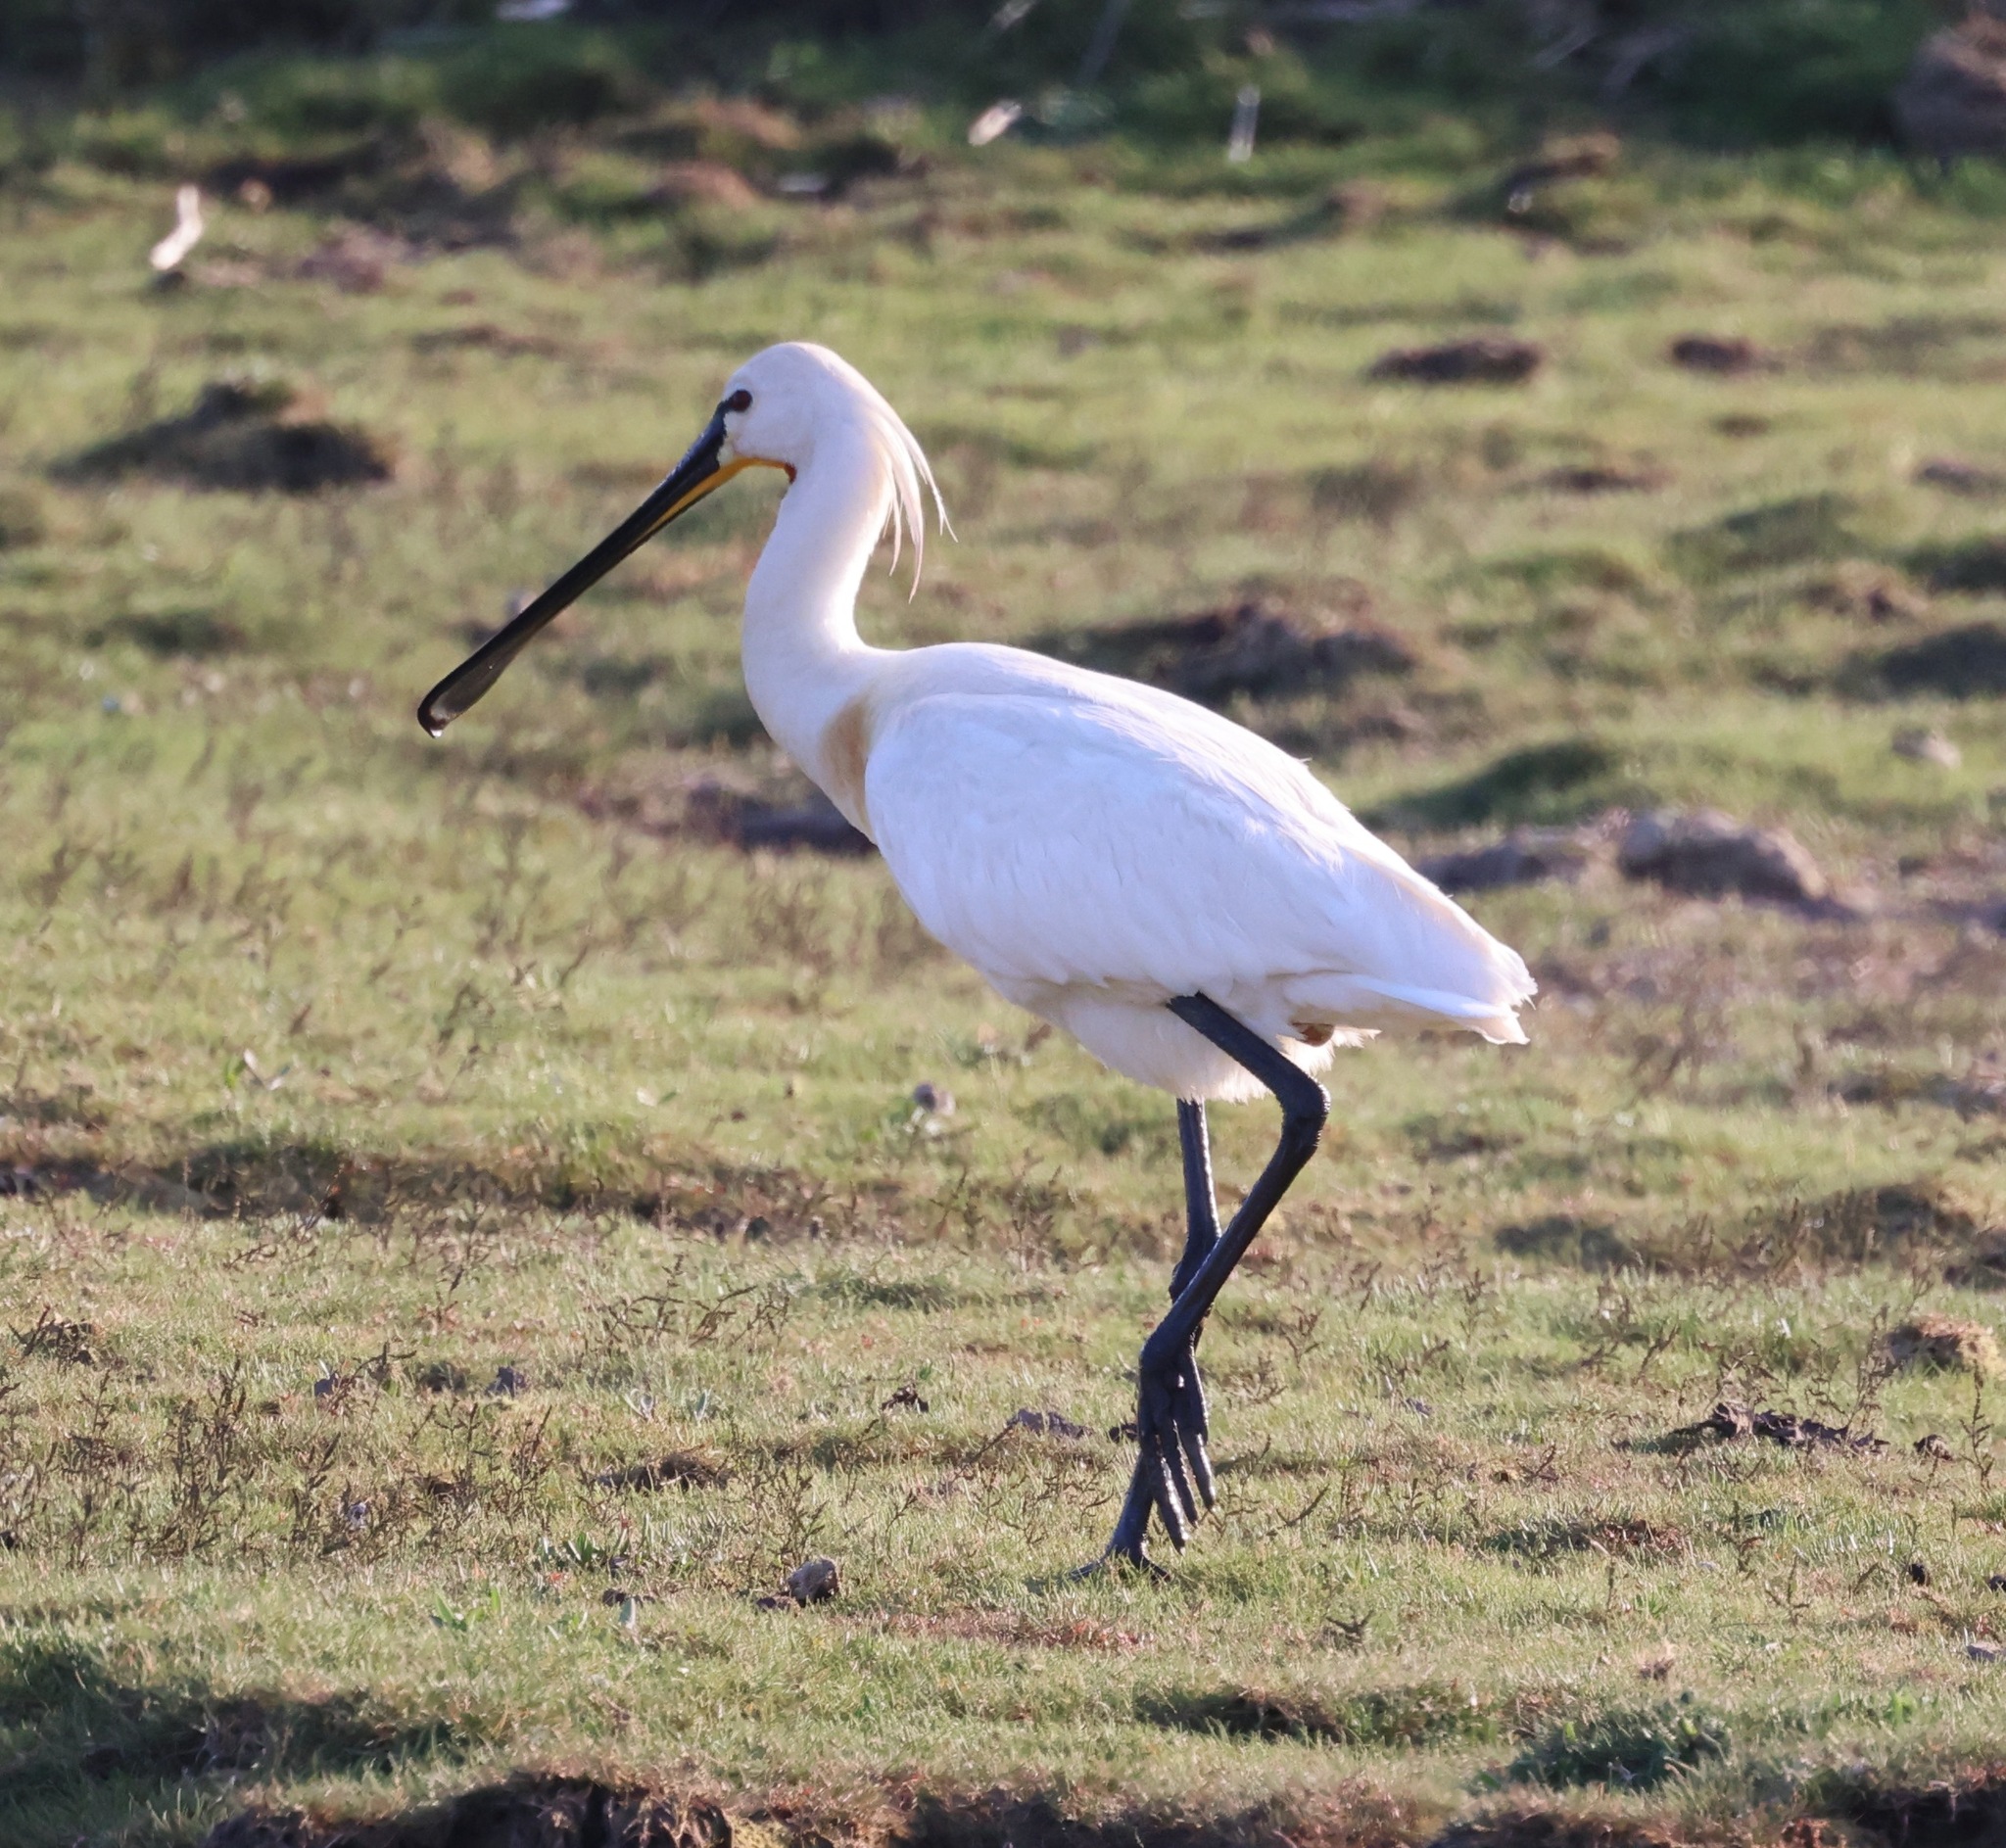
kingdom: Animalia
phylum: Chordata
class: Aves
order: Pelecaniformes
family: Threskiornithidae
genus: Platalea
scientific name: Platalea leucorodia
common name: Eurasian spoonbill
